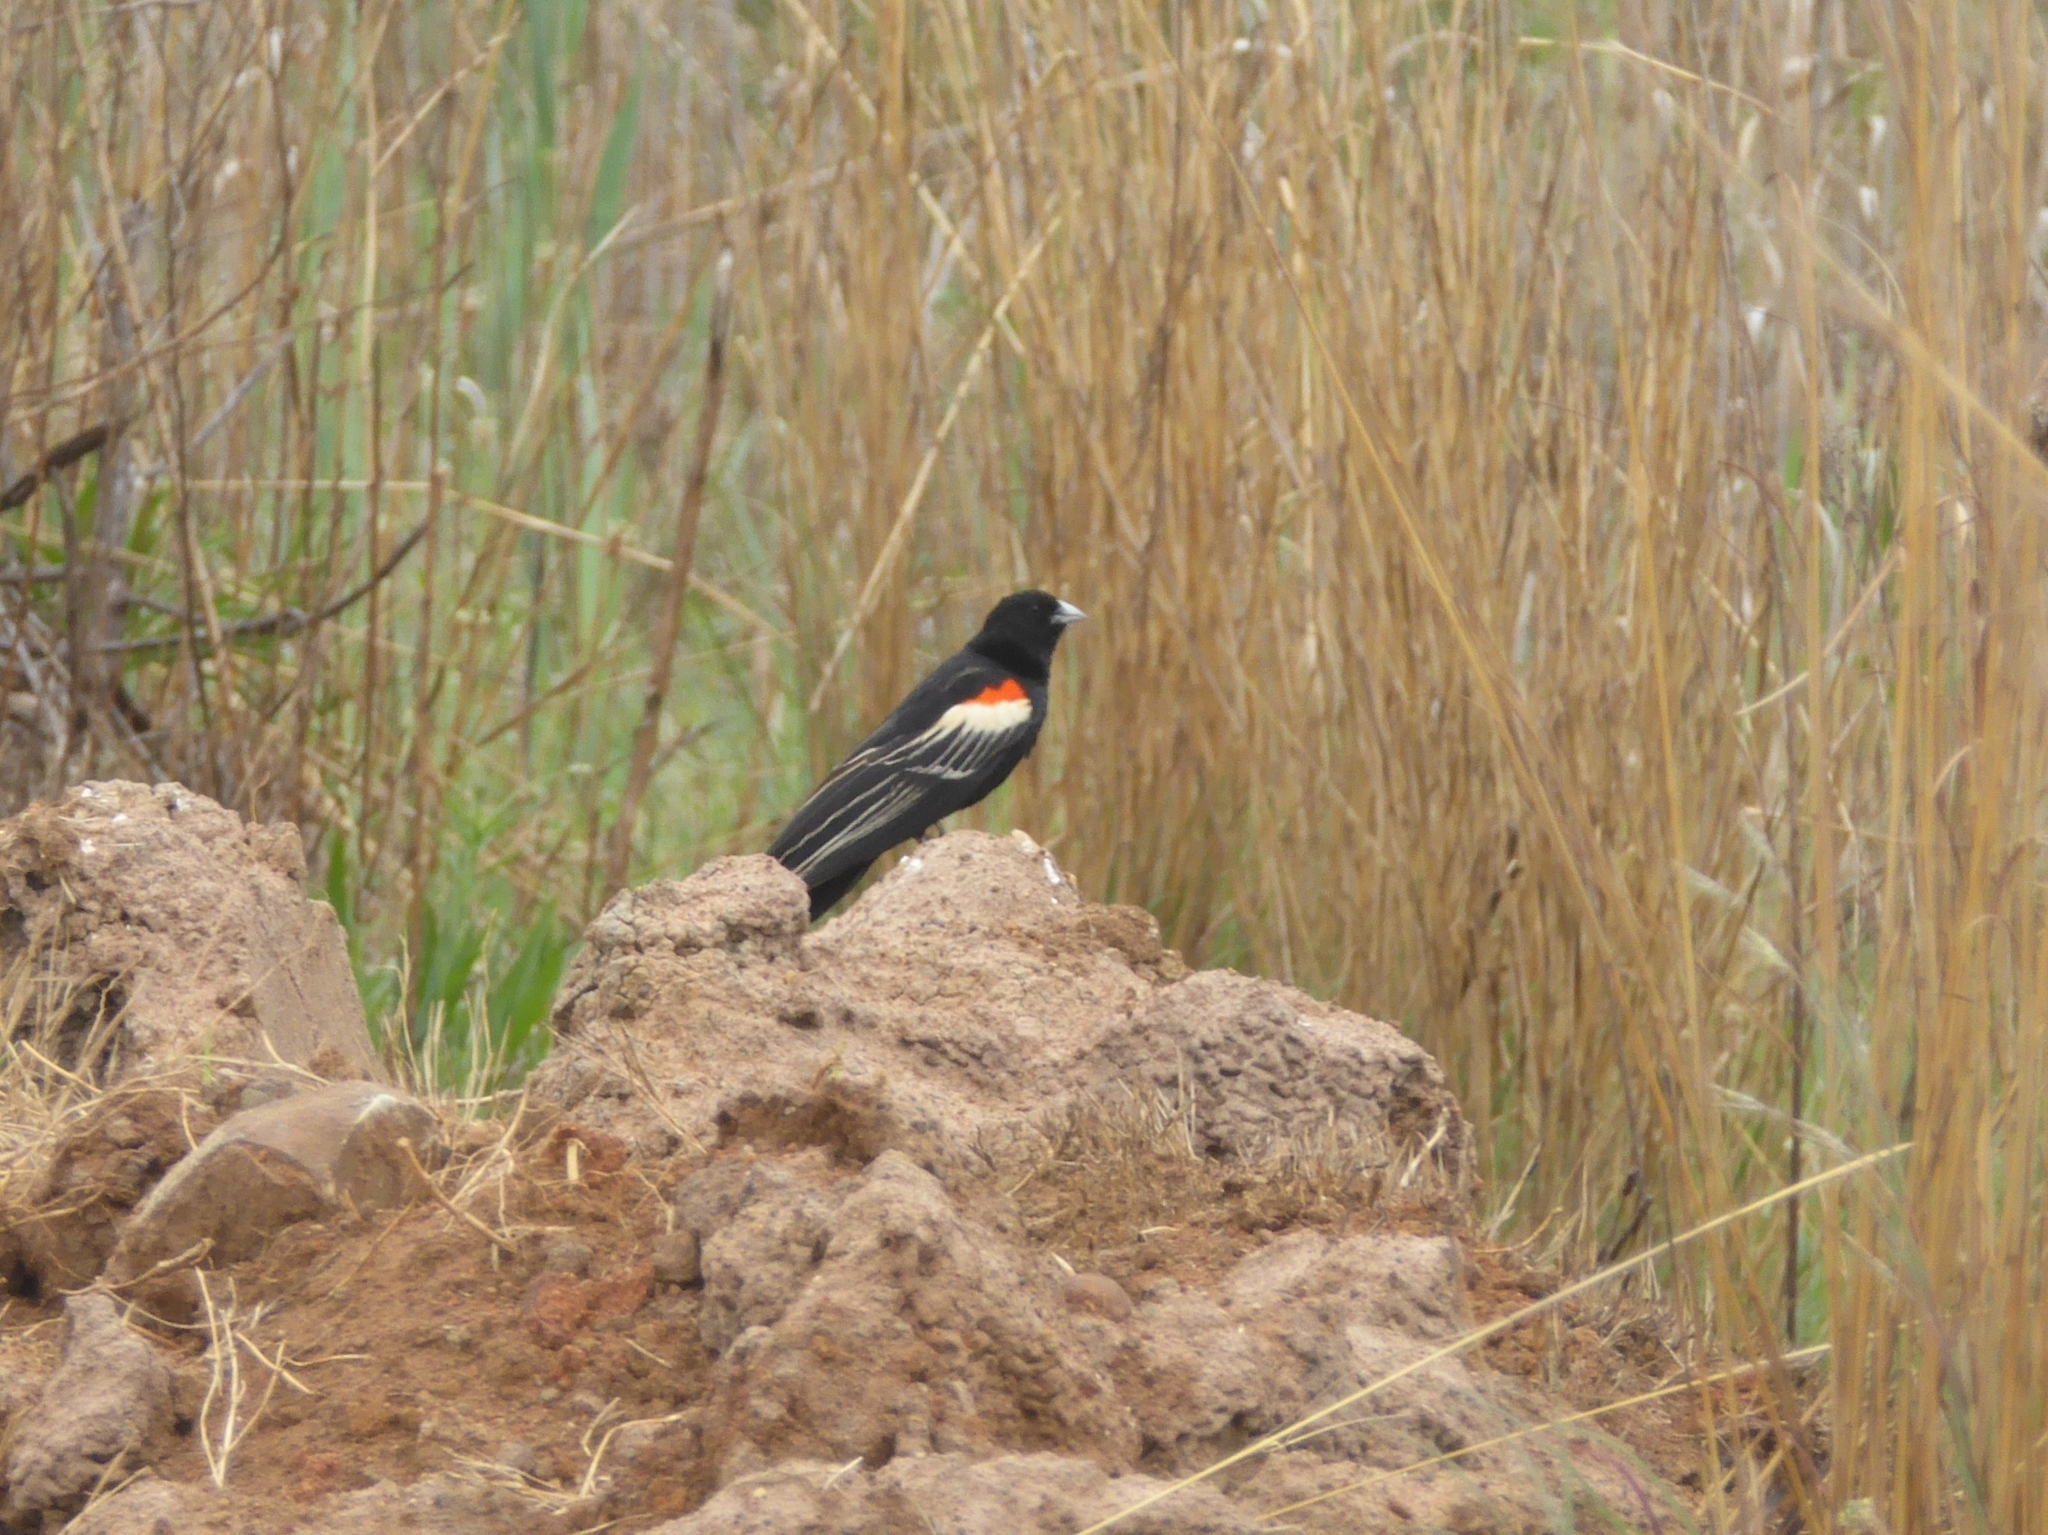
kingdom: Animalia
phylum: Chordata
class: Aves
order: Passeriformes
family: Ploceidae
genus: Euplectes
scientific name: Euplectes progne
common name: Long-tailed widowbird
